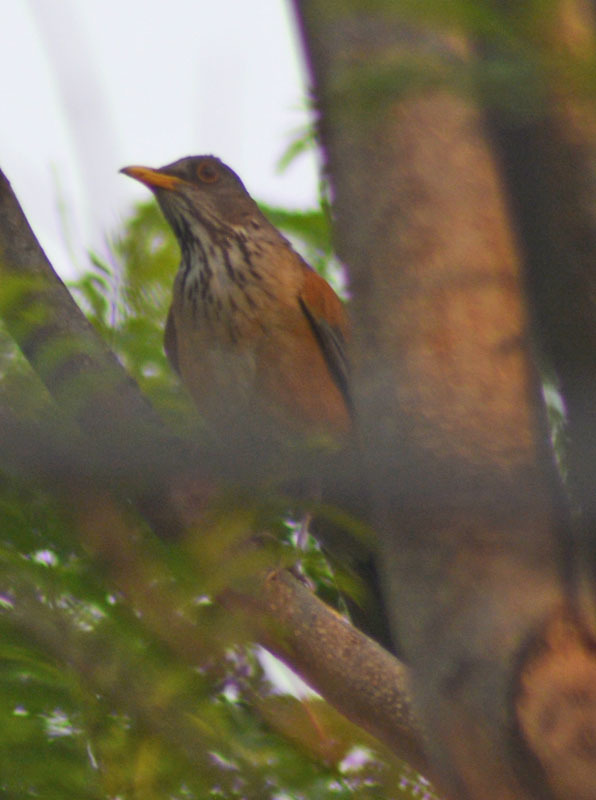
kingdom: Animalia
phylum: Chordata
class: Aves
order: Passeriformes
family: Turdidae
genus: Turdus
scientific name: Turdus rufopalliatus
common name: Rufous-backed robin
